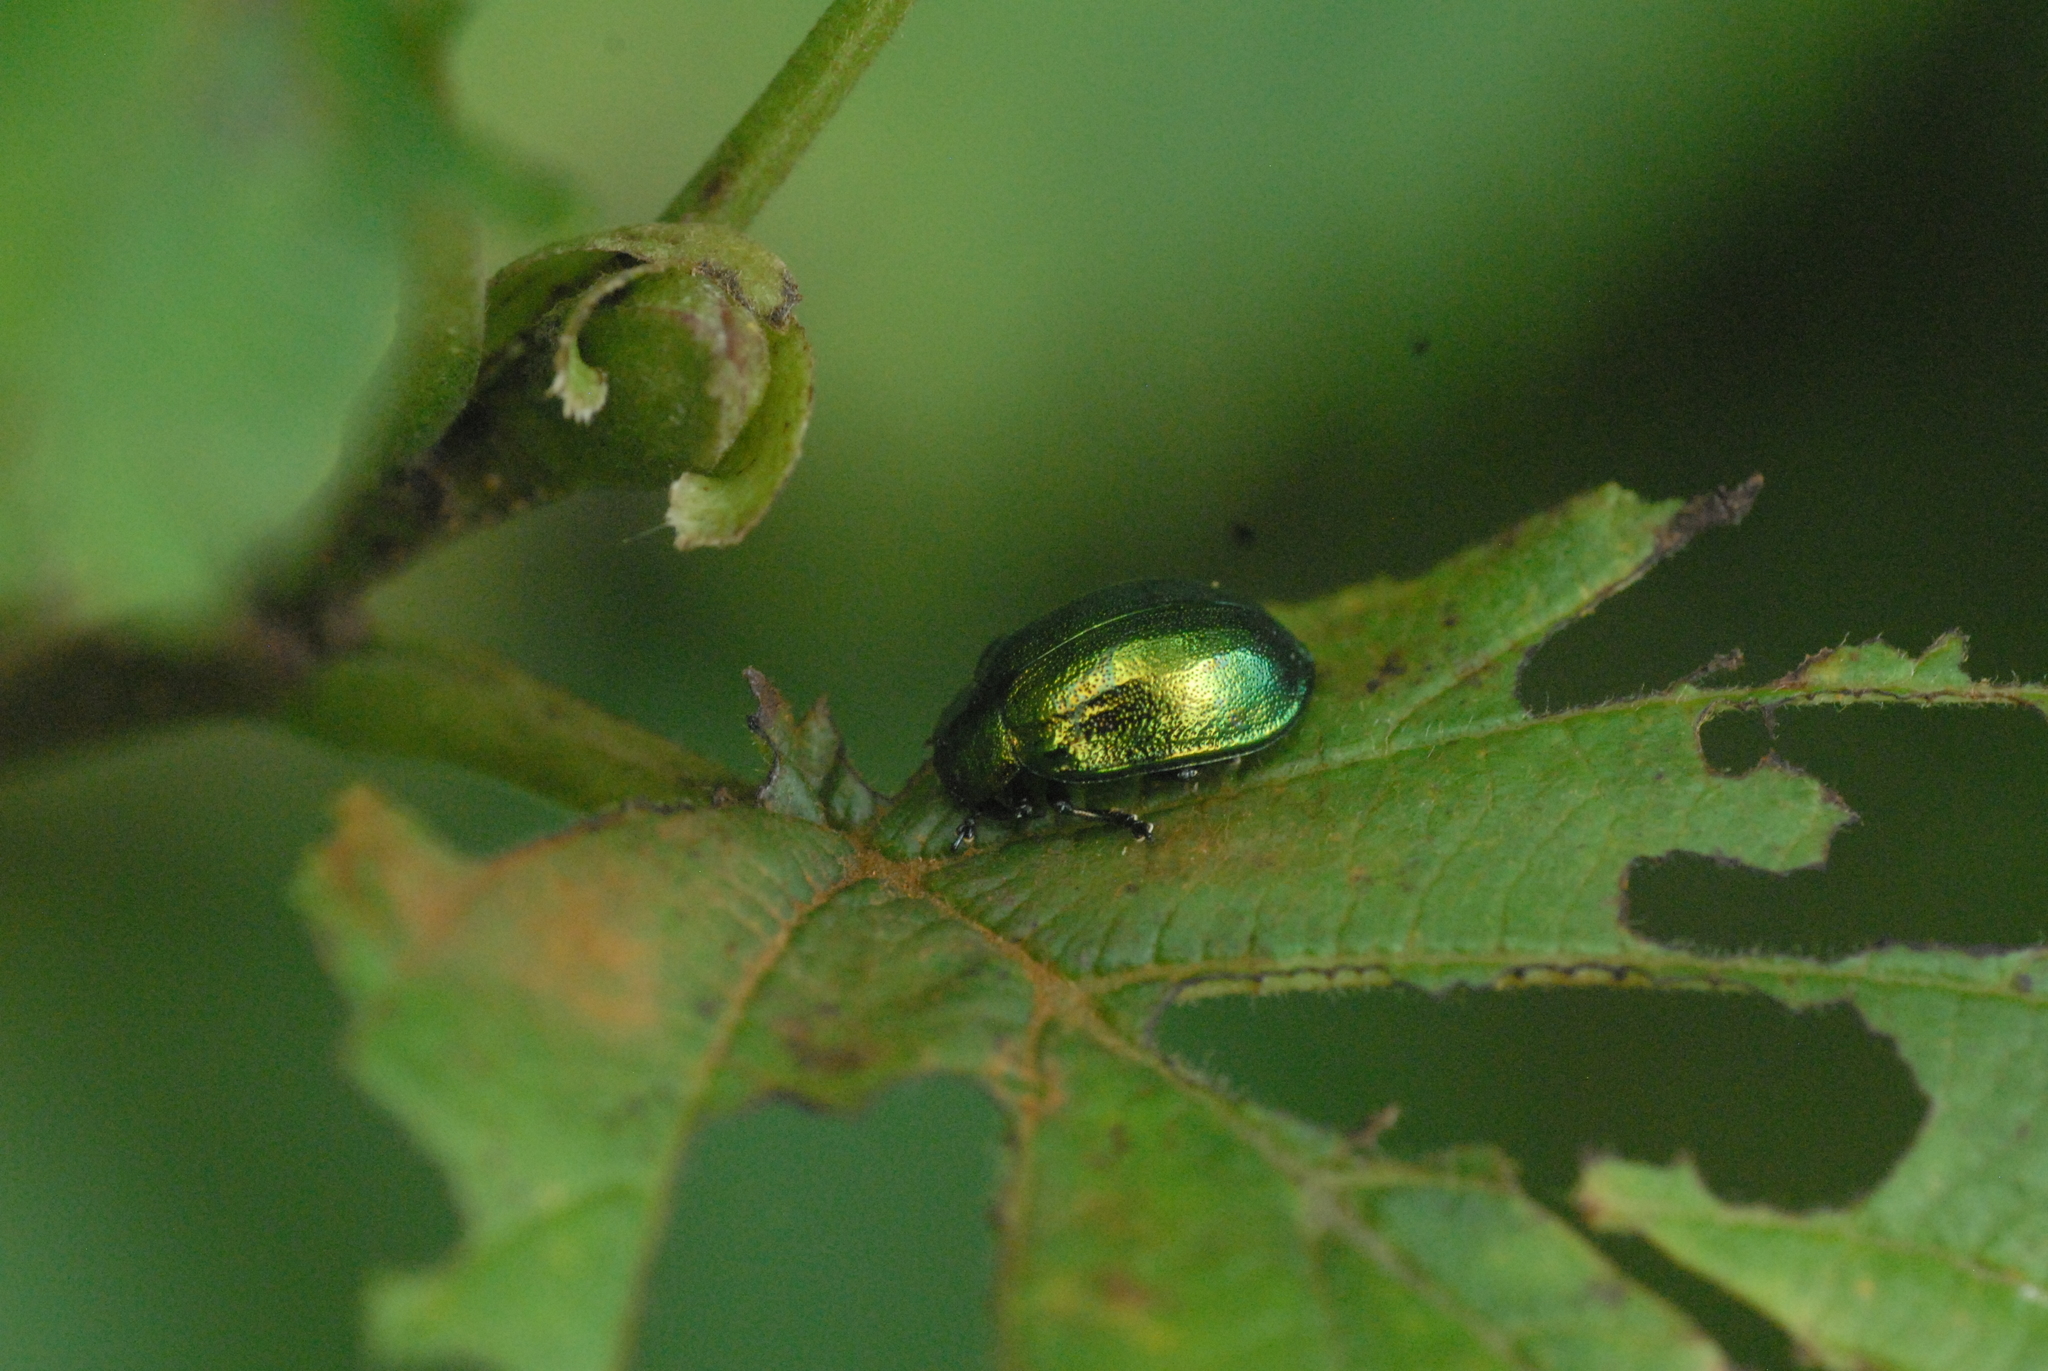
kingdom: Animalia
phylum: Arthropoda
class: Insecta
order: Coleoptera
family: Chrysomelidae
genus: Plagiosterna
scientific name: Plagiosterna aenea
